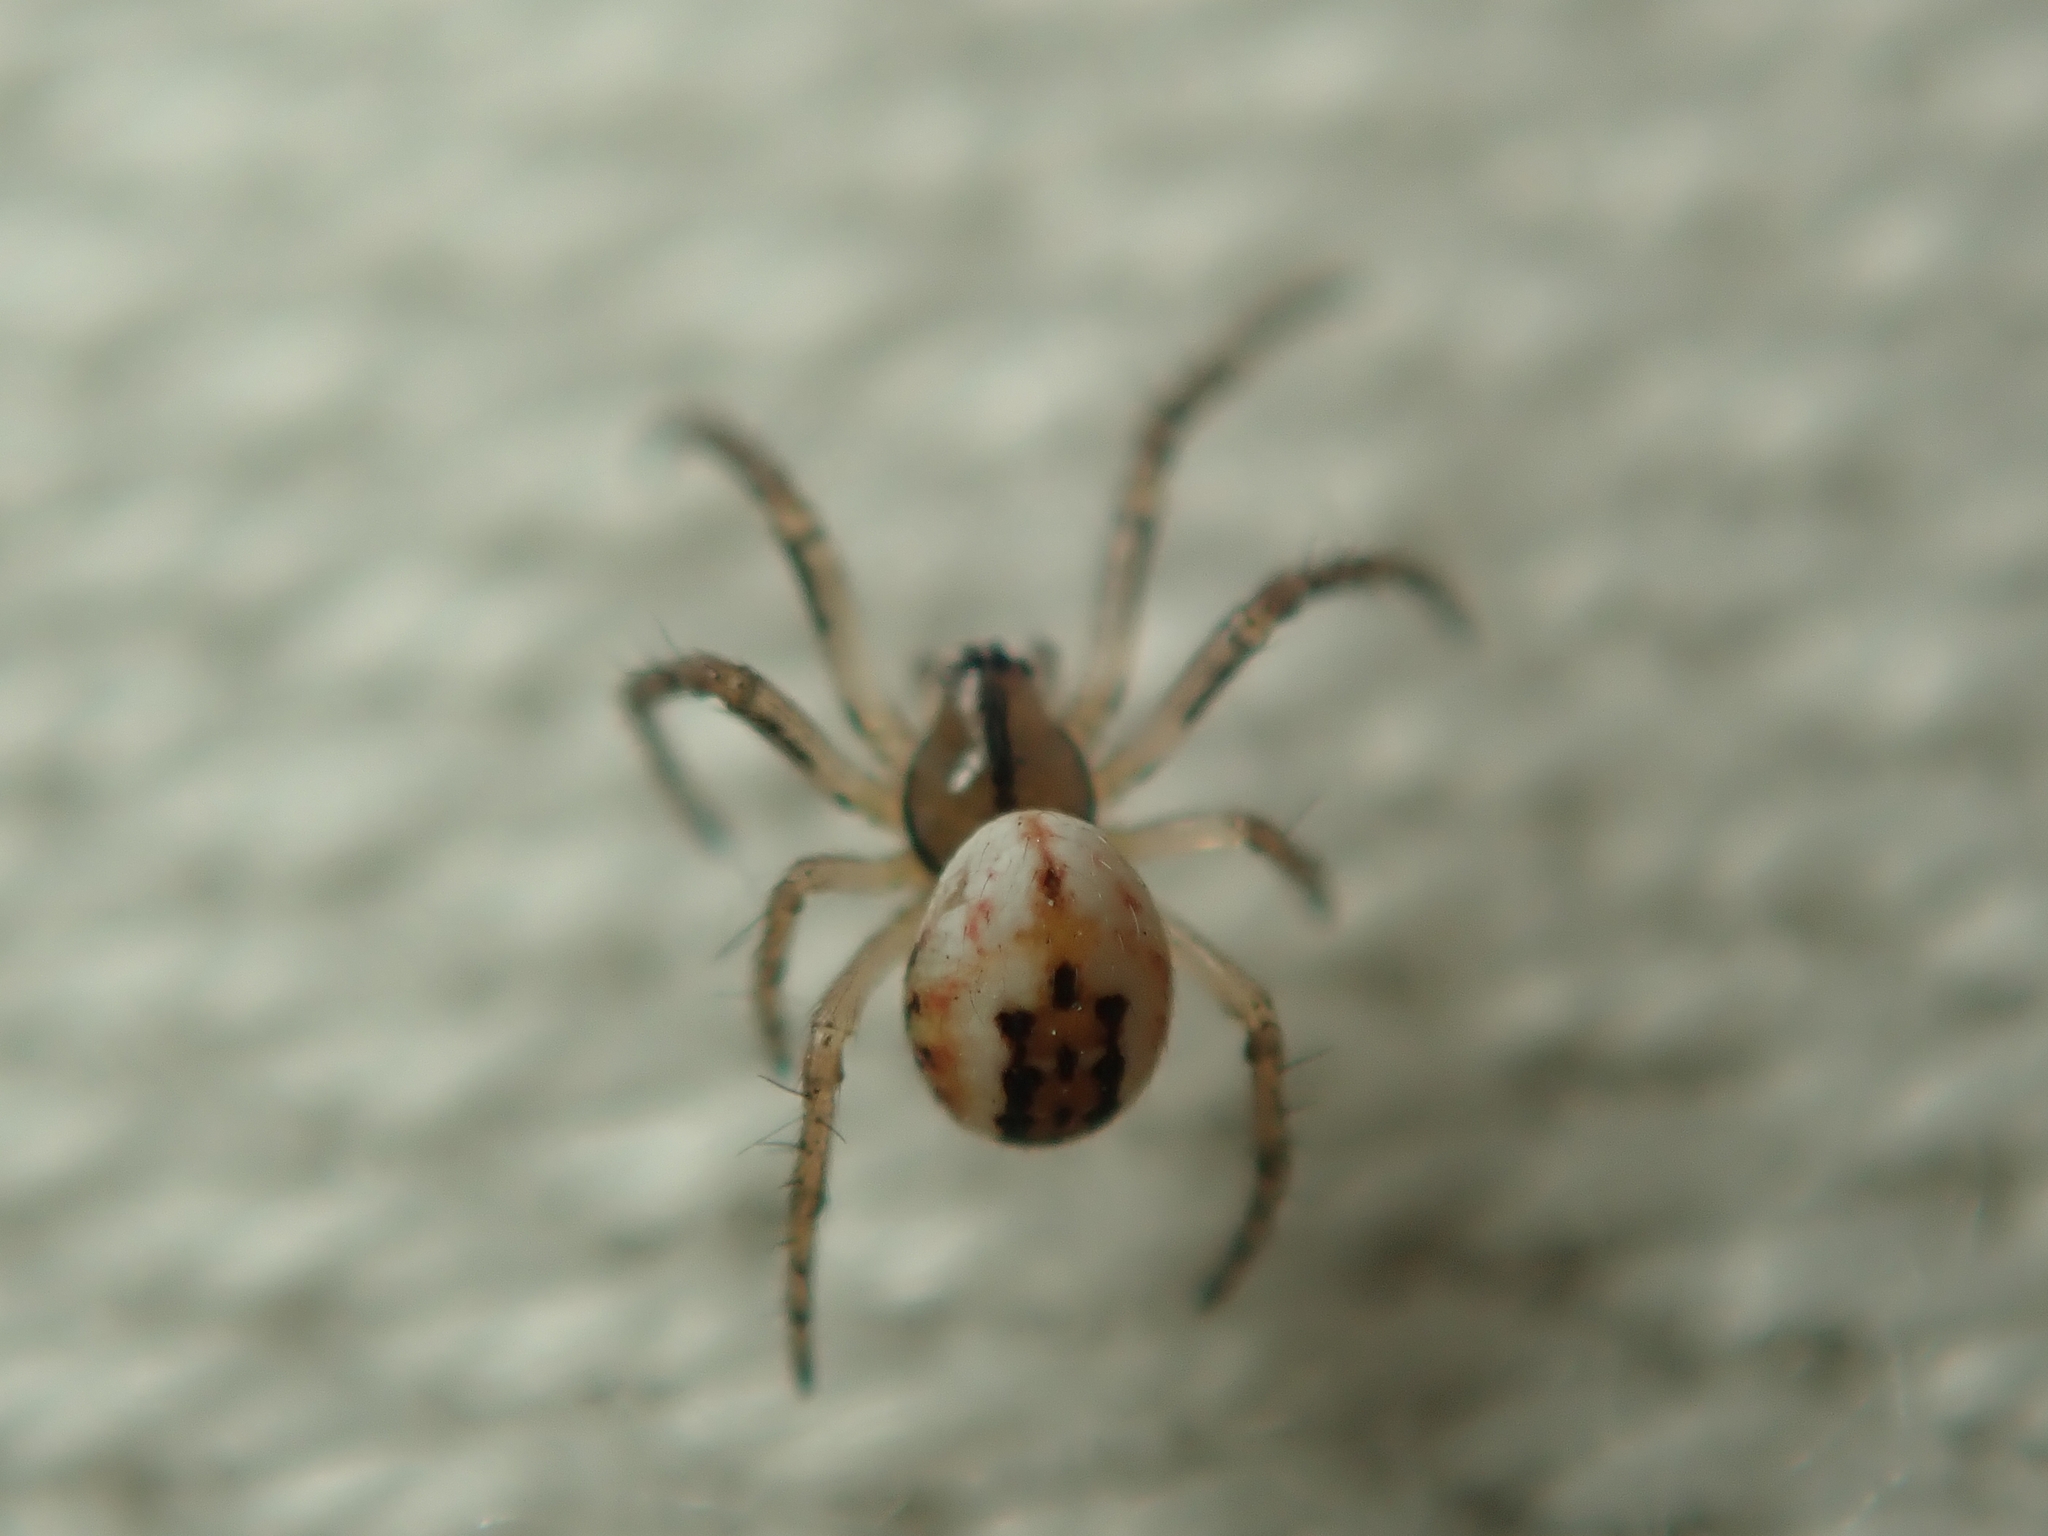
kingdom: Animalia
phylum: Arthropoda
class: Arachnida
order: Araneae
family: Araneidae
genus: Mangora
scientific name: Mangora acalypha
